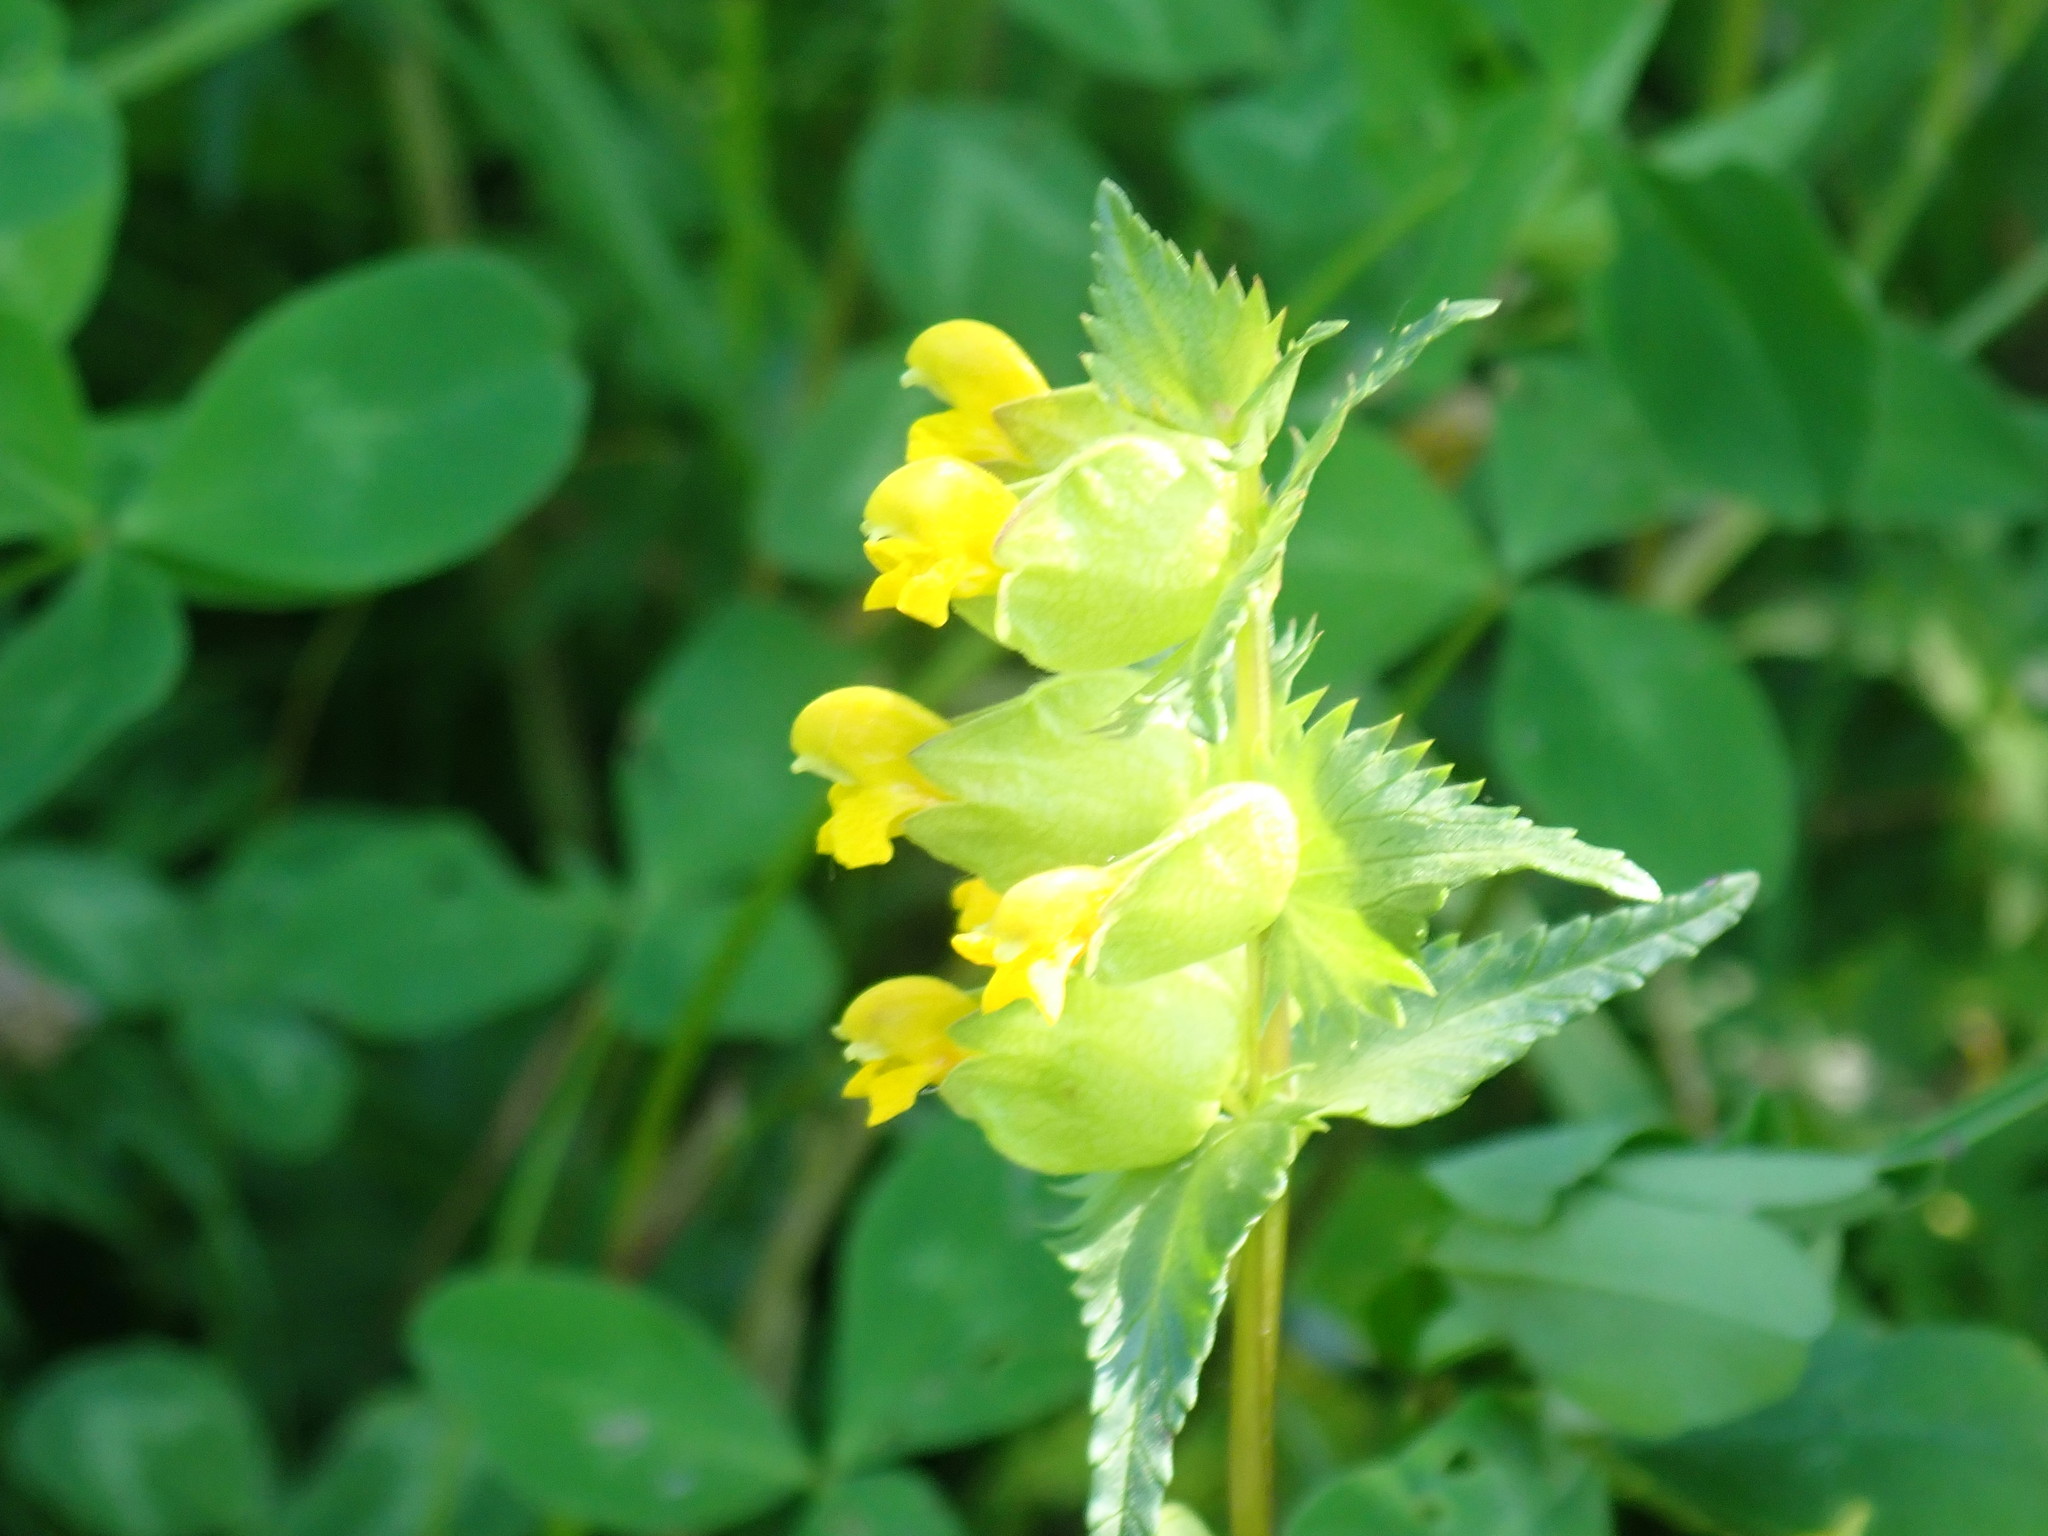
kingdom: Plantae
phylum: Tracheophyta
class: Magnoliopsida
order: Lamiales
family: Orobanchaceae
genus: Rhinanthus
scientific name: Rhinanthus minor
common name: Yellow-rattle
